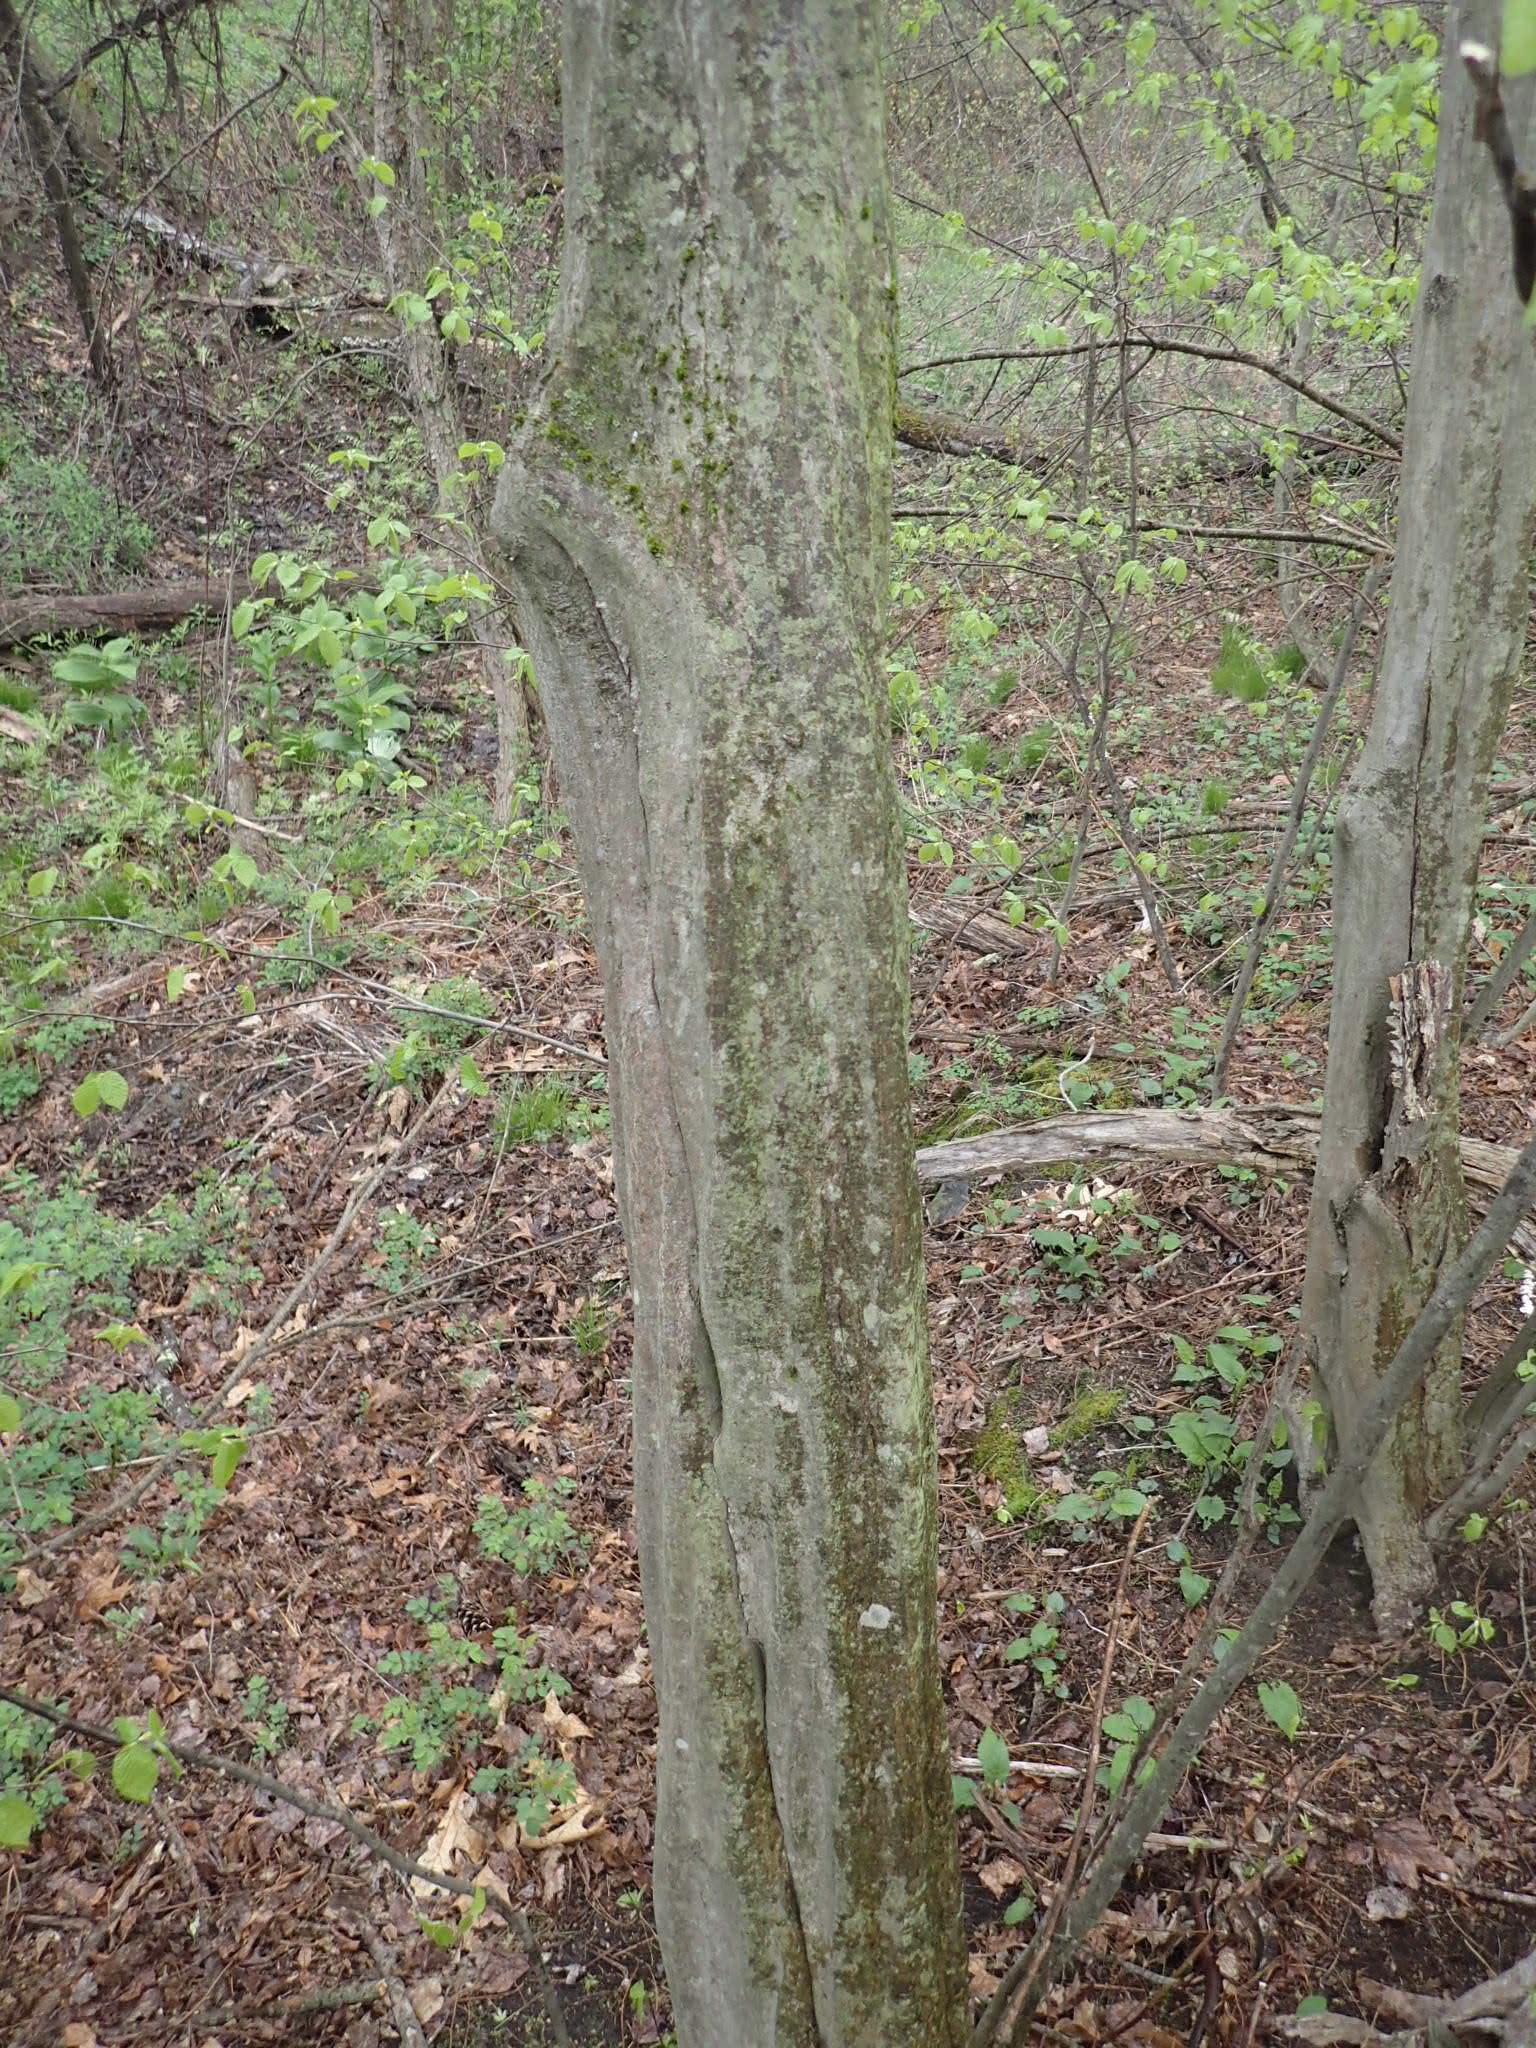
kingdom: Plantae
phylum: Tracheophyta
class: Magnoliopsida
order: Fagales
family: Betulaceae
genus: Carpinus
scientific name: Carpinus caroliniana
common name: American hornbeam
